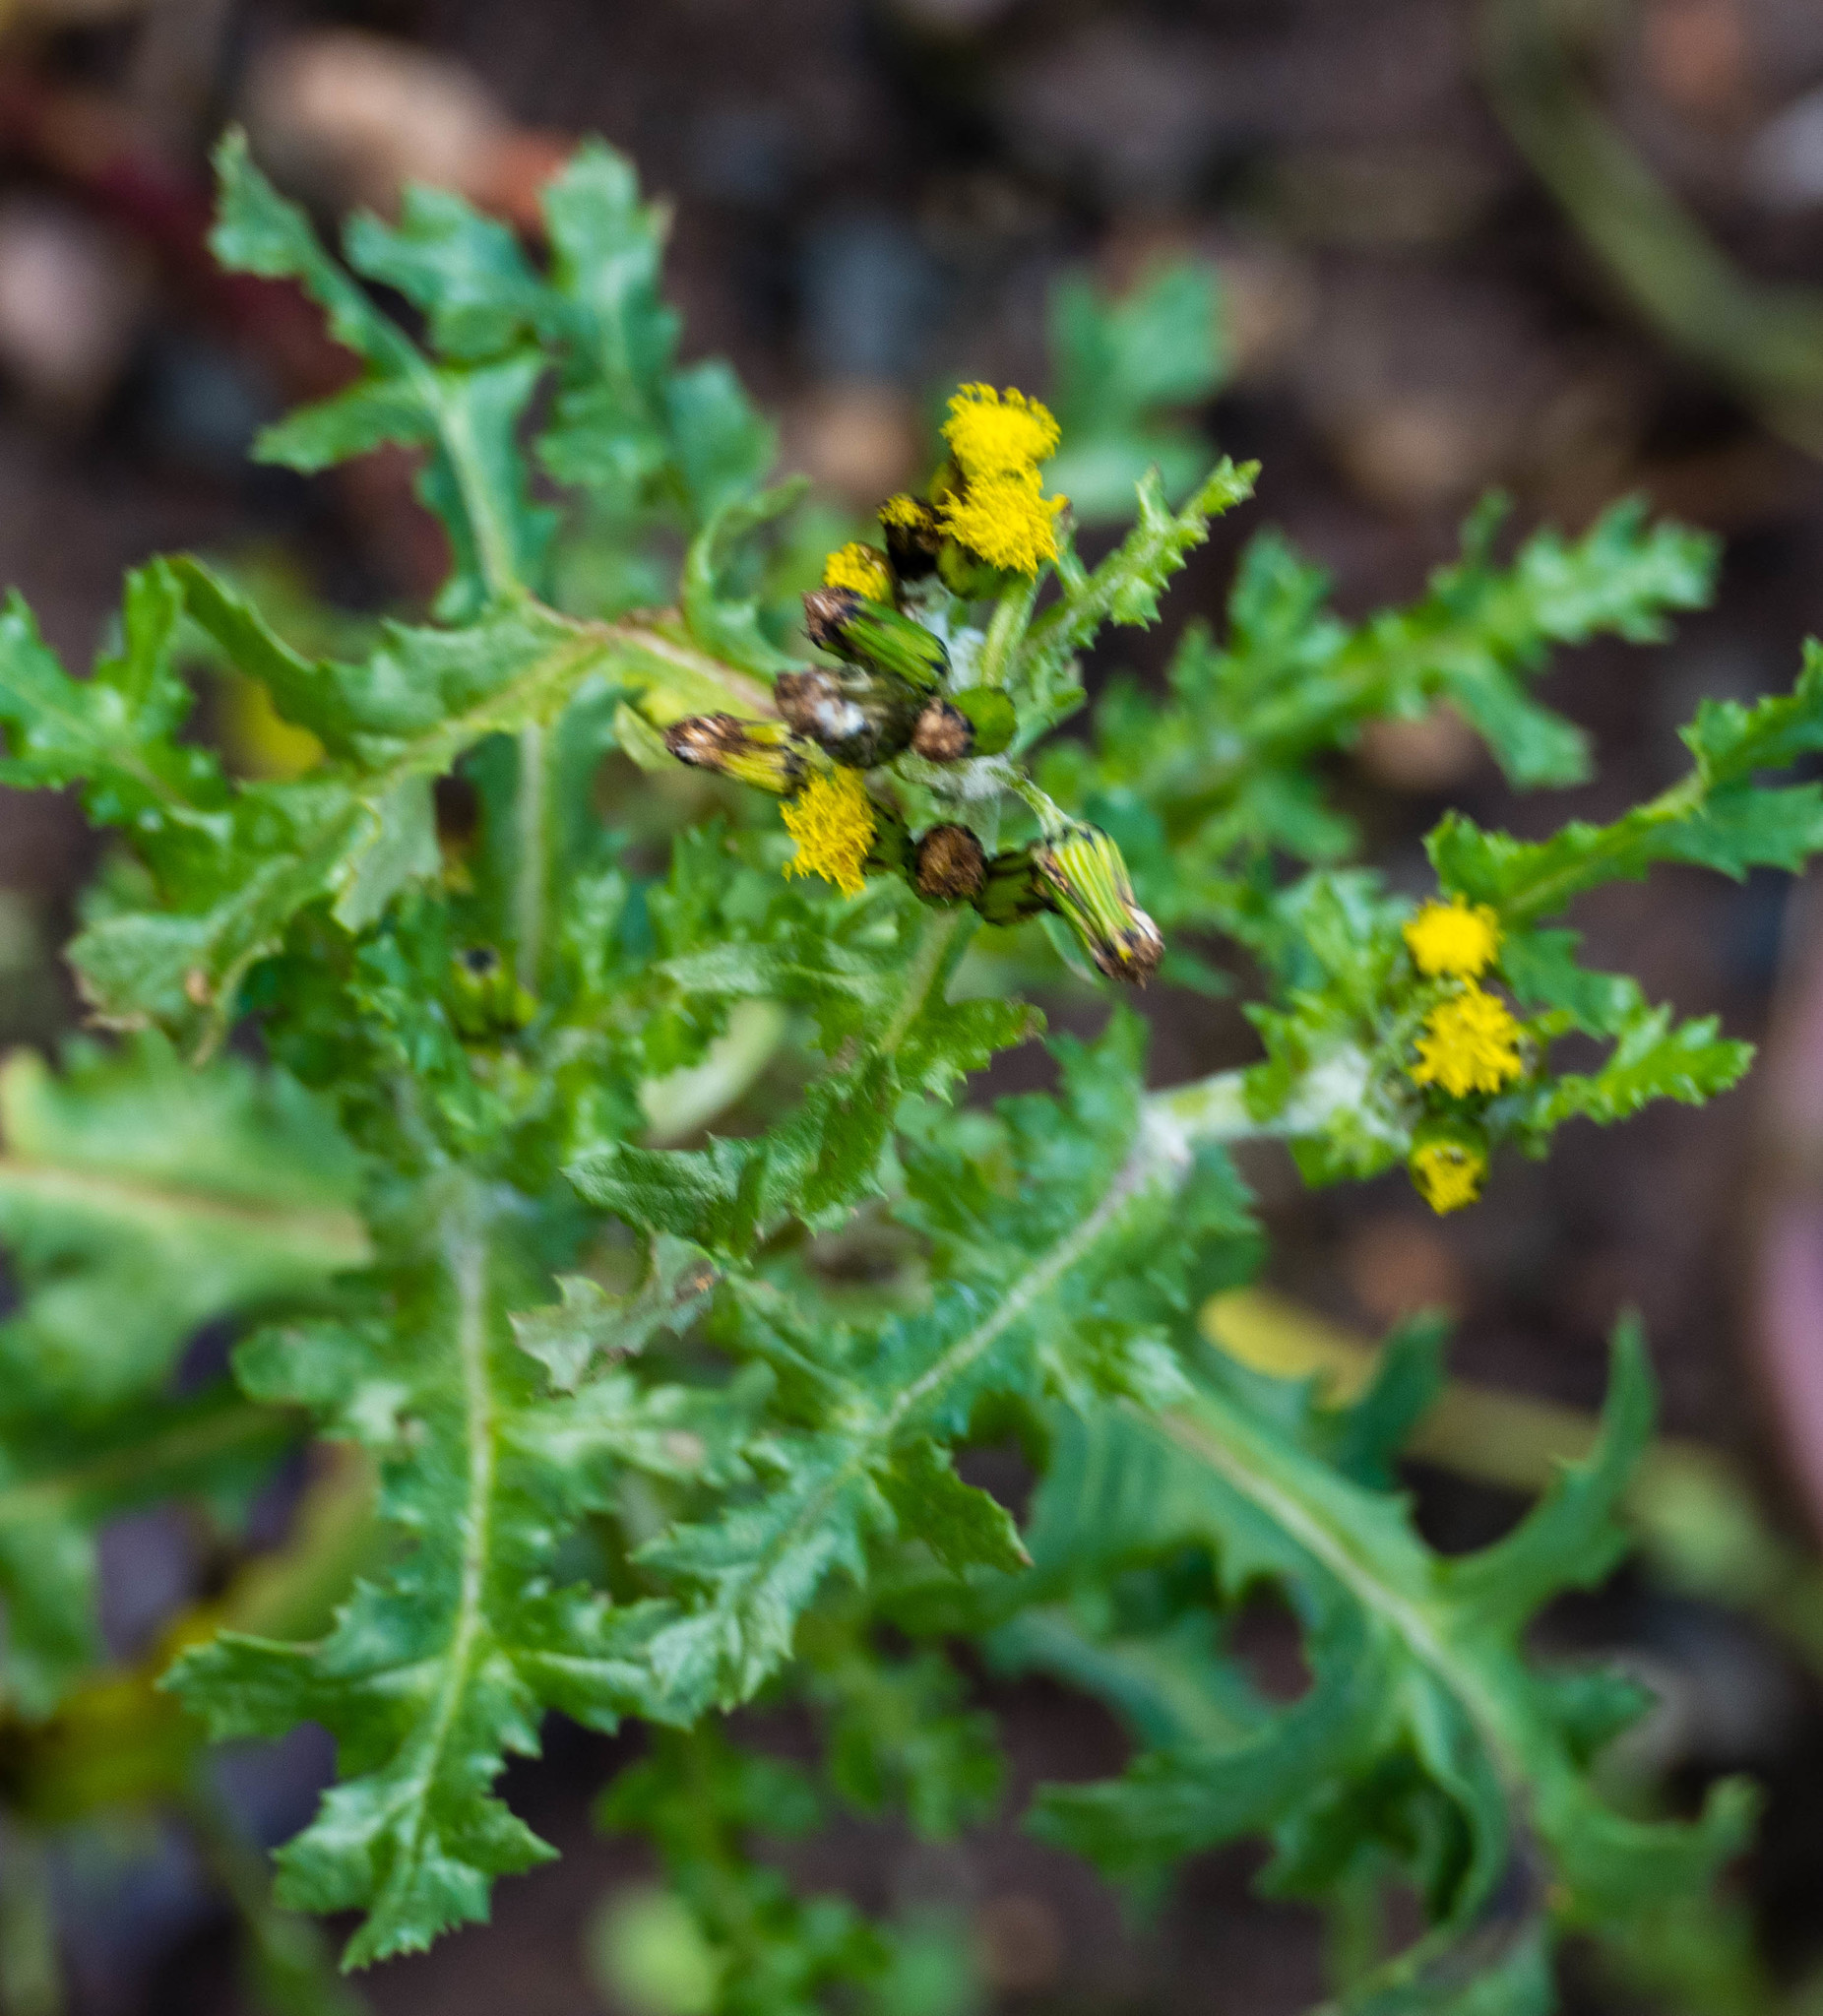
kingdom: Plantae
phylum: Tracheophyta
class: Magnoliopsida
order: Asterales
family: Asteraceae
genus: Senecio
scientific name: Senecio vulgaris
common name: Old-man-in-the-spring
